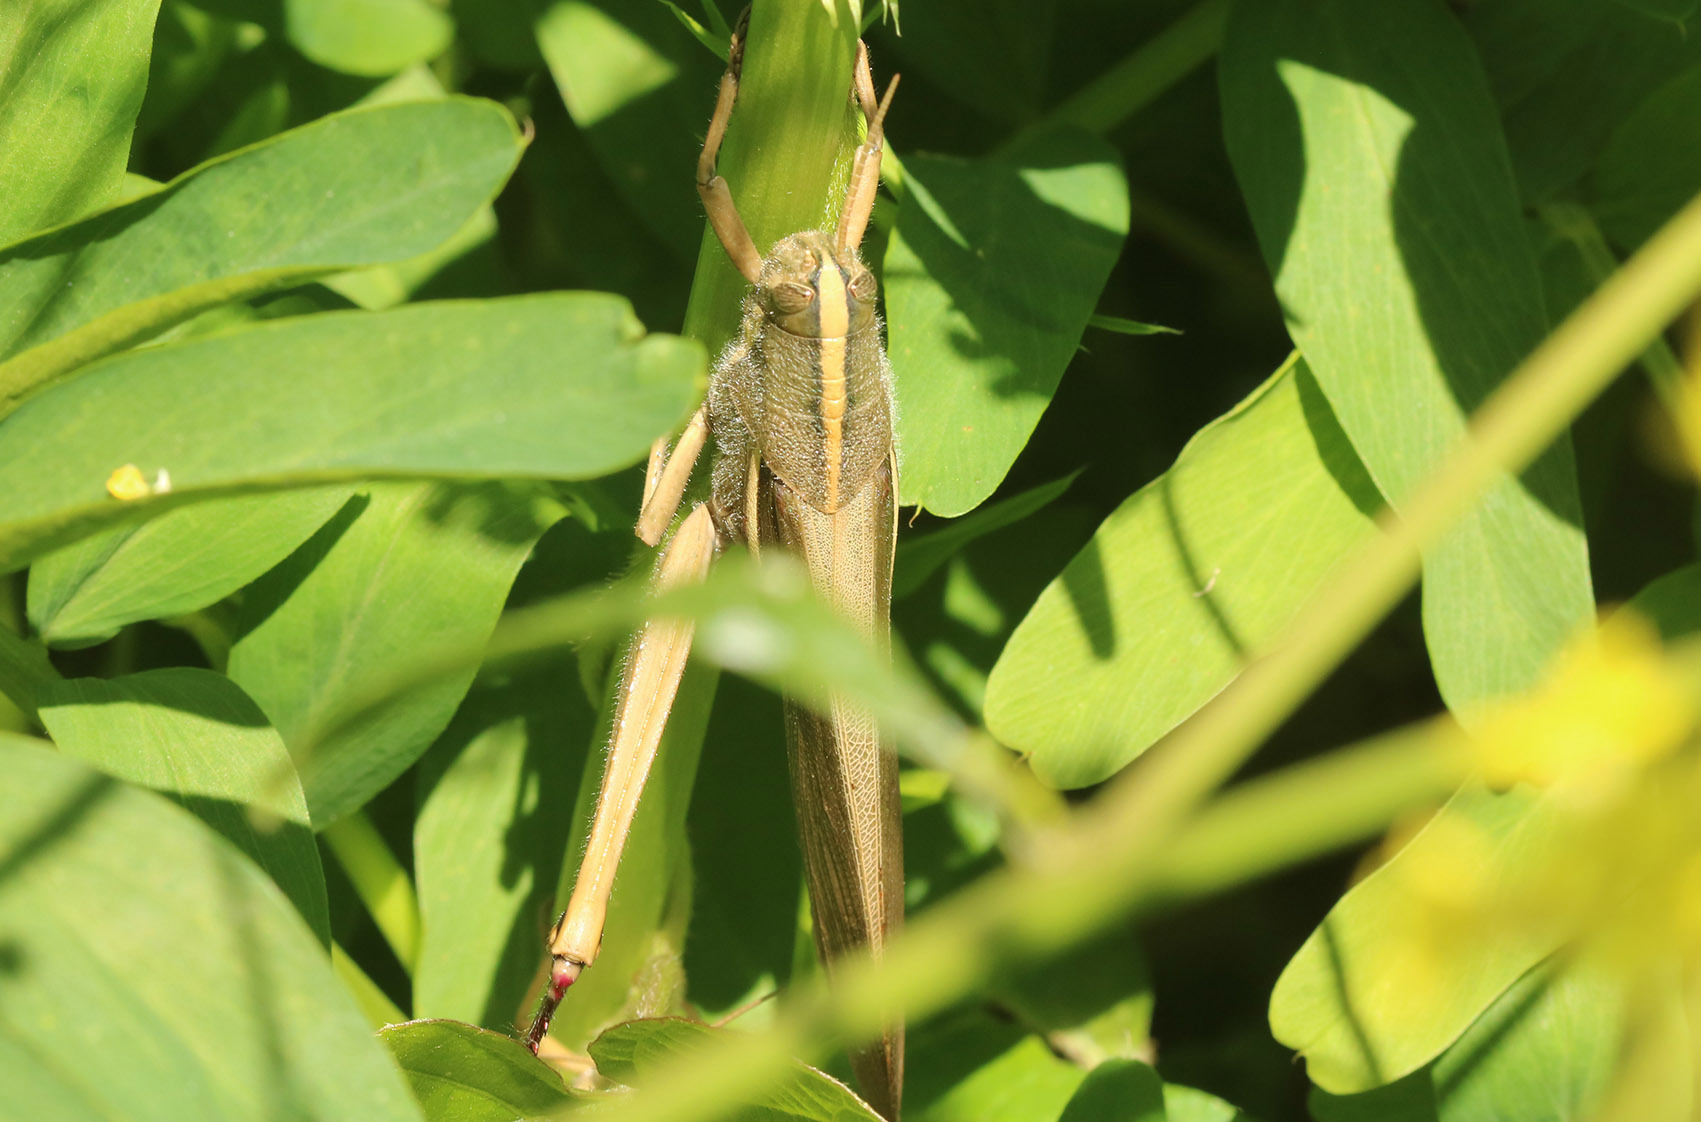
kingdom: Animalia
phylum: Arthropoda
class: Insecta
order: Orthoptera
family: Acrididae
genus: Schistocerca
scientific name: Schistocerca flavofasciata
